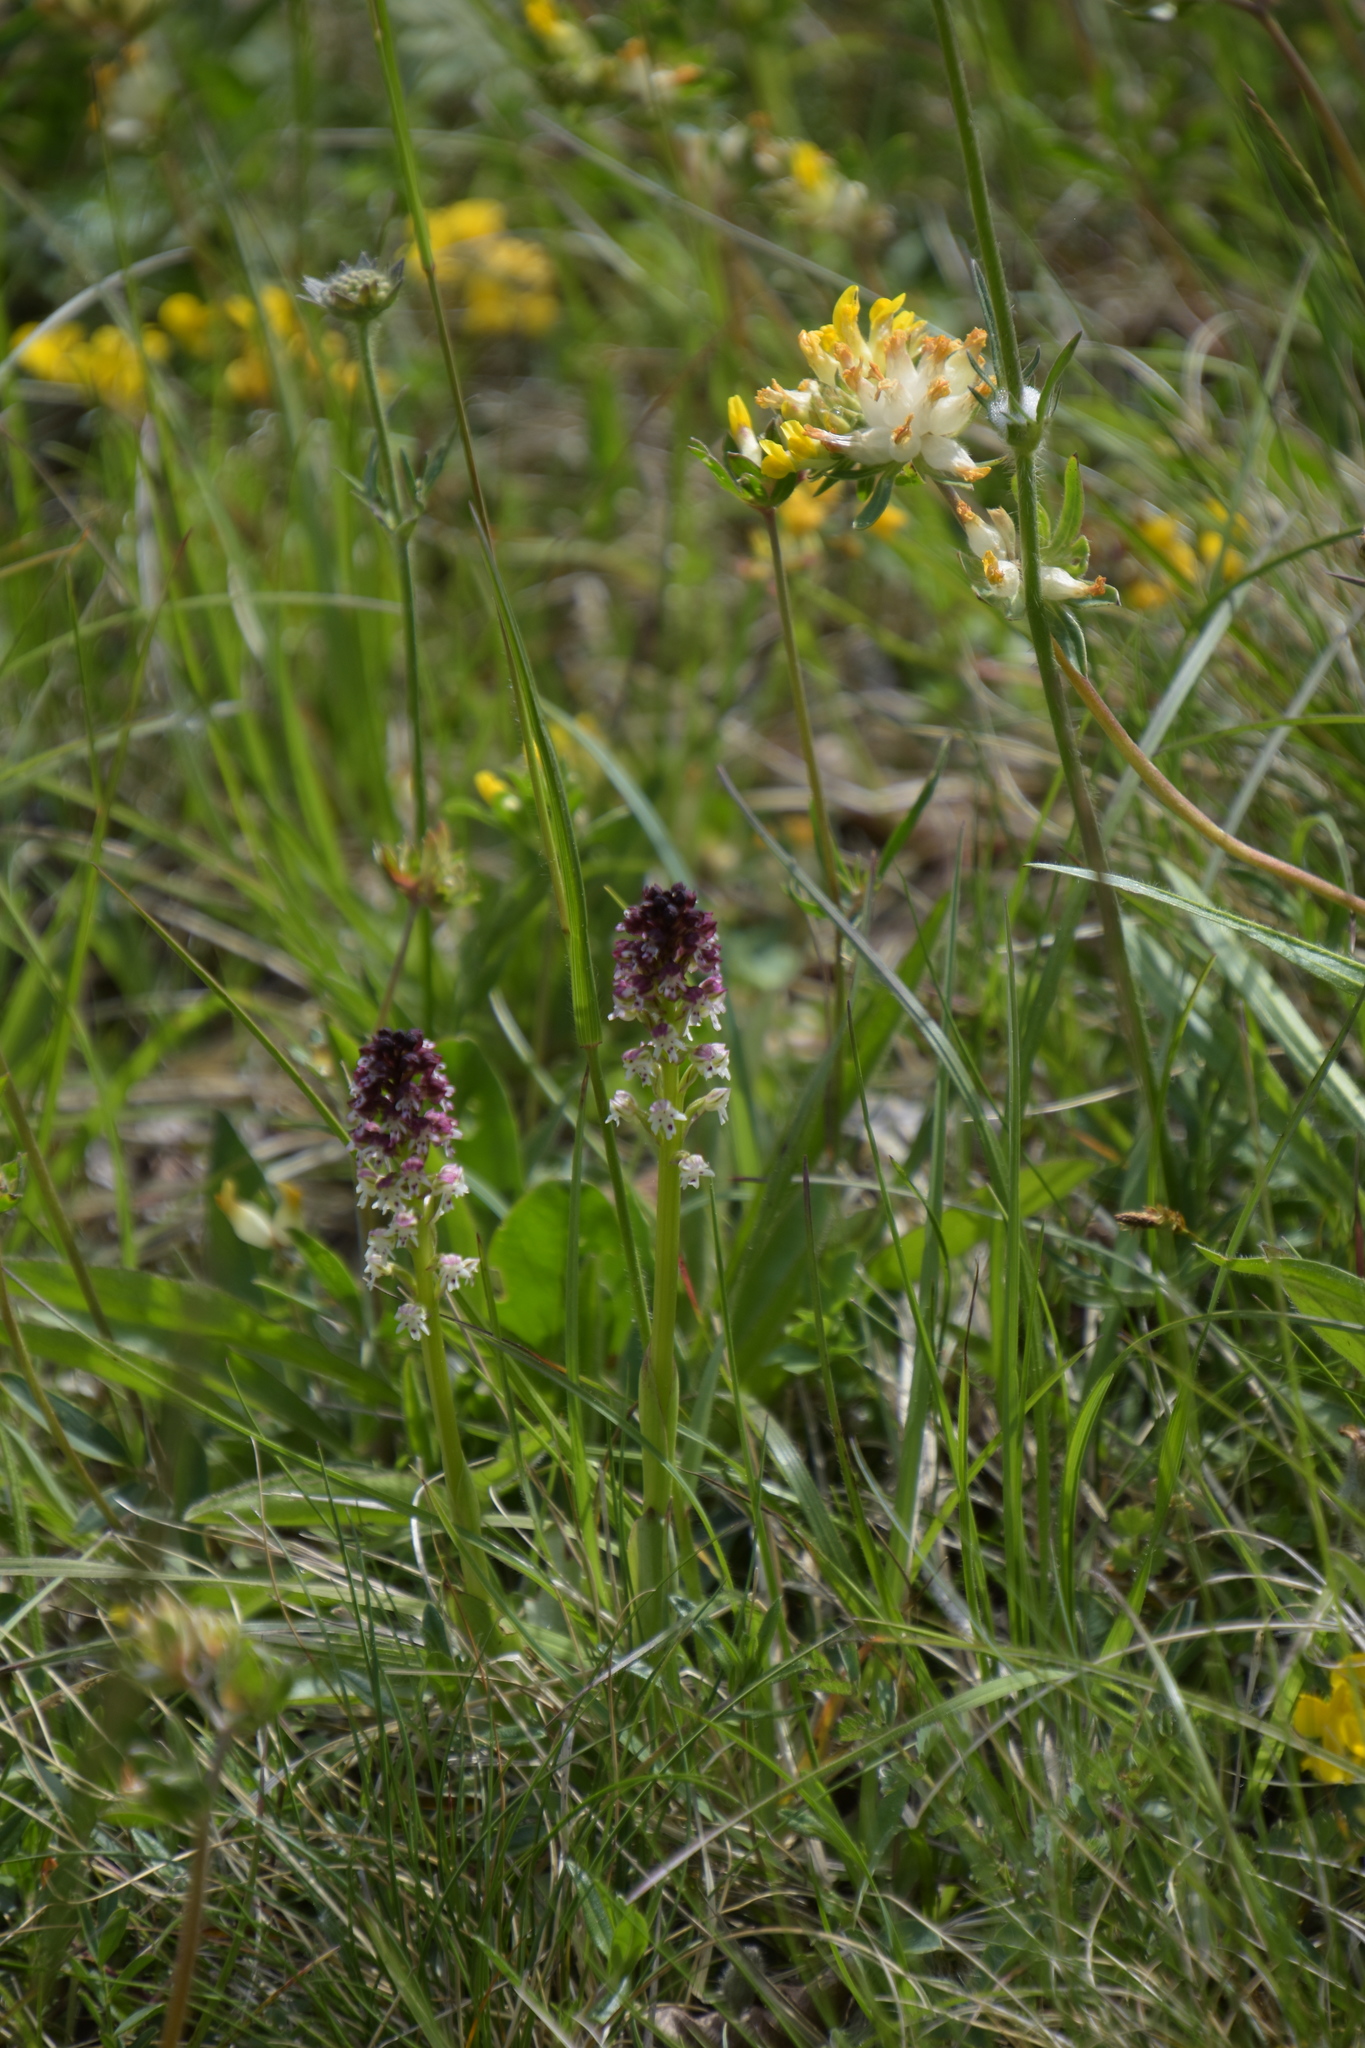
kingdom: Plantae
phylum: Tracheophyta
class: Liliopsida
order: Asparagales
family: Orchidaceae
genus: Neotinea
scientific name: Neotinea ustulata
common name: Burnt orchid
